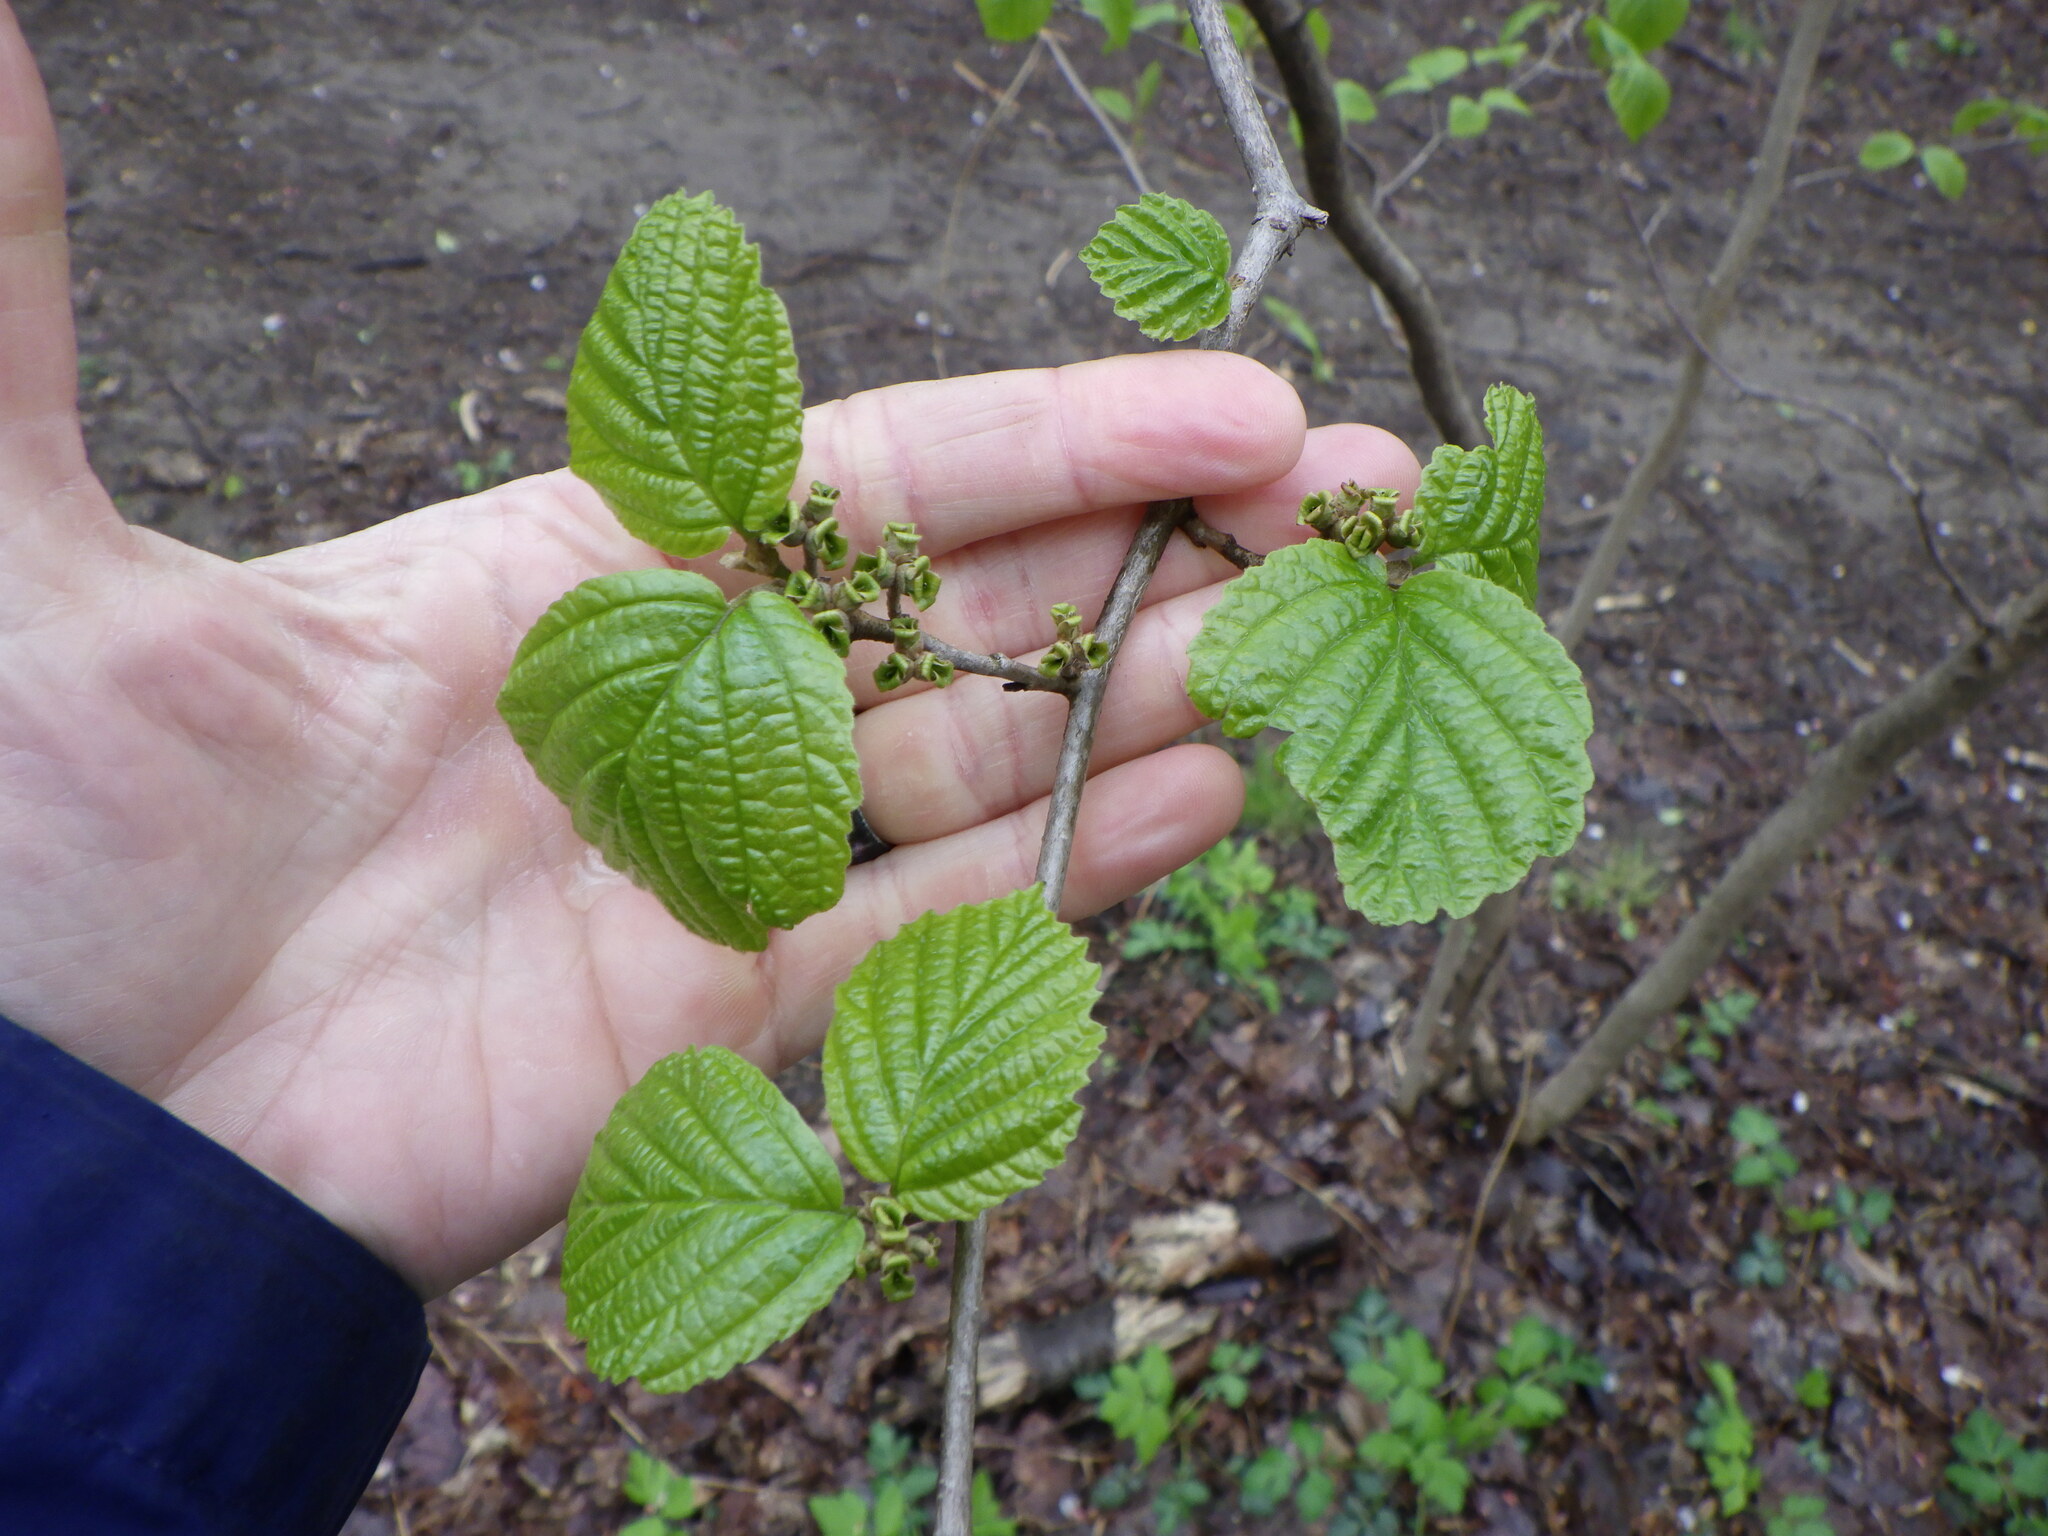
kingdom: Plantae
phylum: Tracheophyta
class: Magnoliopsida
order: Saxifragales
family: Hamamelidaceae
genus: Hamamelis
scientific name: Hamamelis virginiana
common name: Witch-hazel
